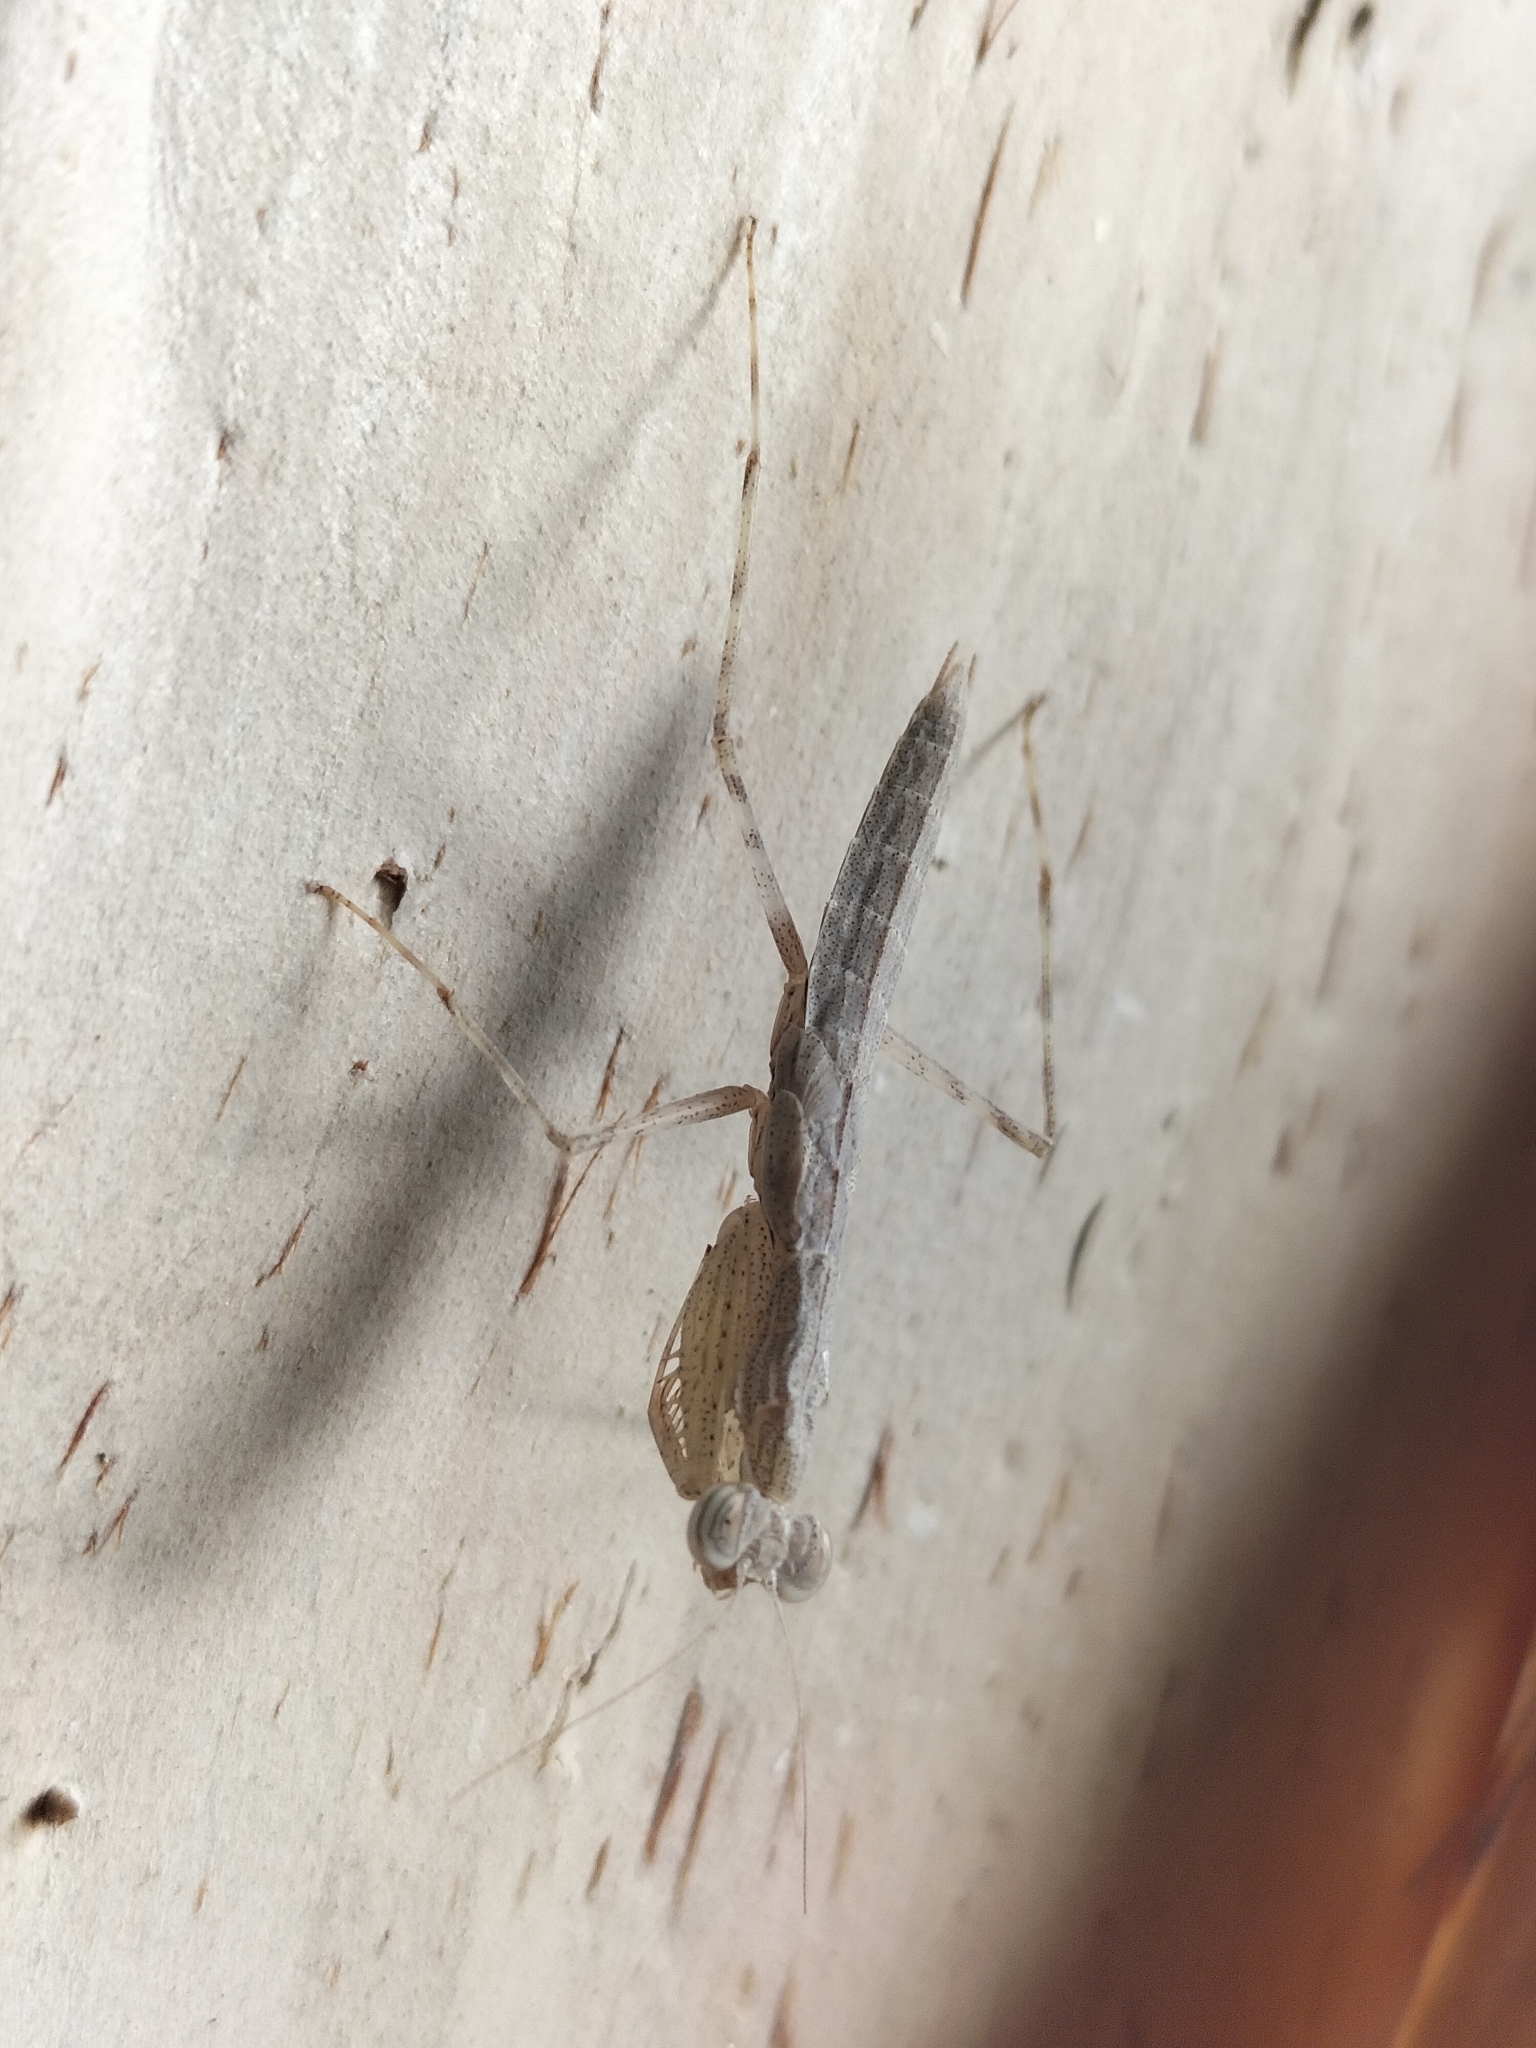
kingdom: Animalia
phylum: Arthropoda
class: Insecta
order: Mantodea
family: Nanomantidae
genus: Ima
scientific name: Ima fusca
